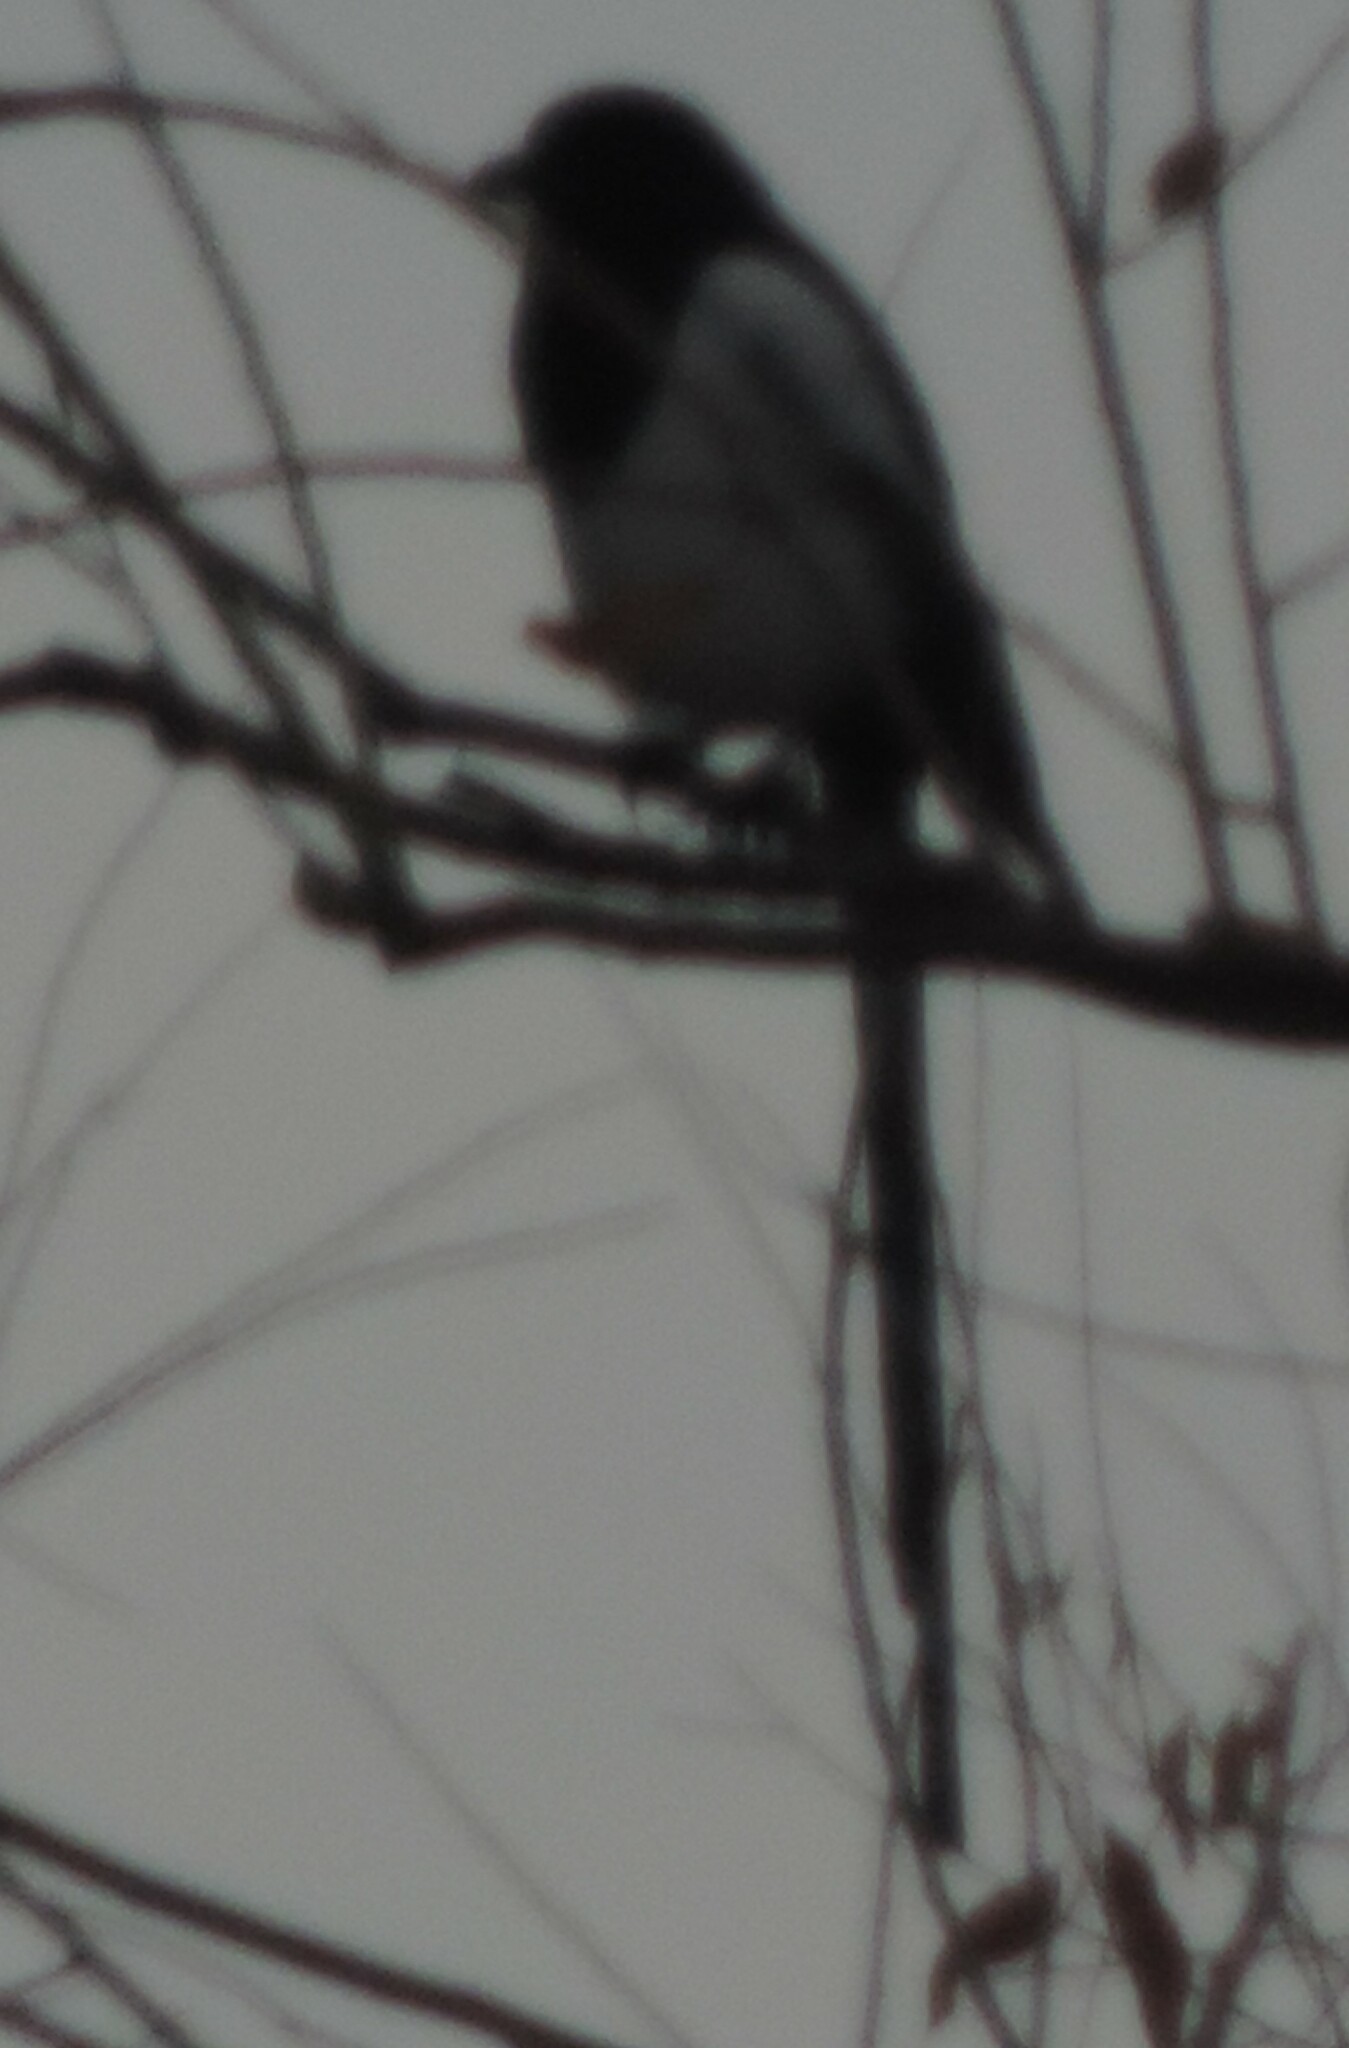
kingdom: Animalia
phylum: Chordata
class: Aves
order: Passeriformes
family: Corvidae
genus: Pica
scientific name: Pica hudsonia
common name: Black-billed magpie
